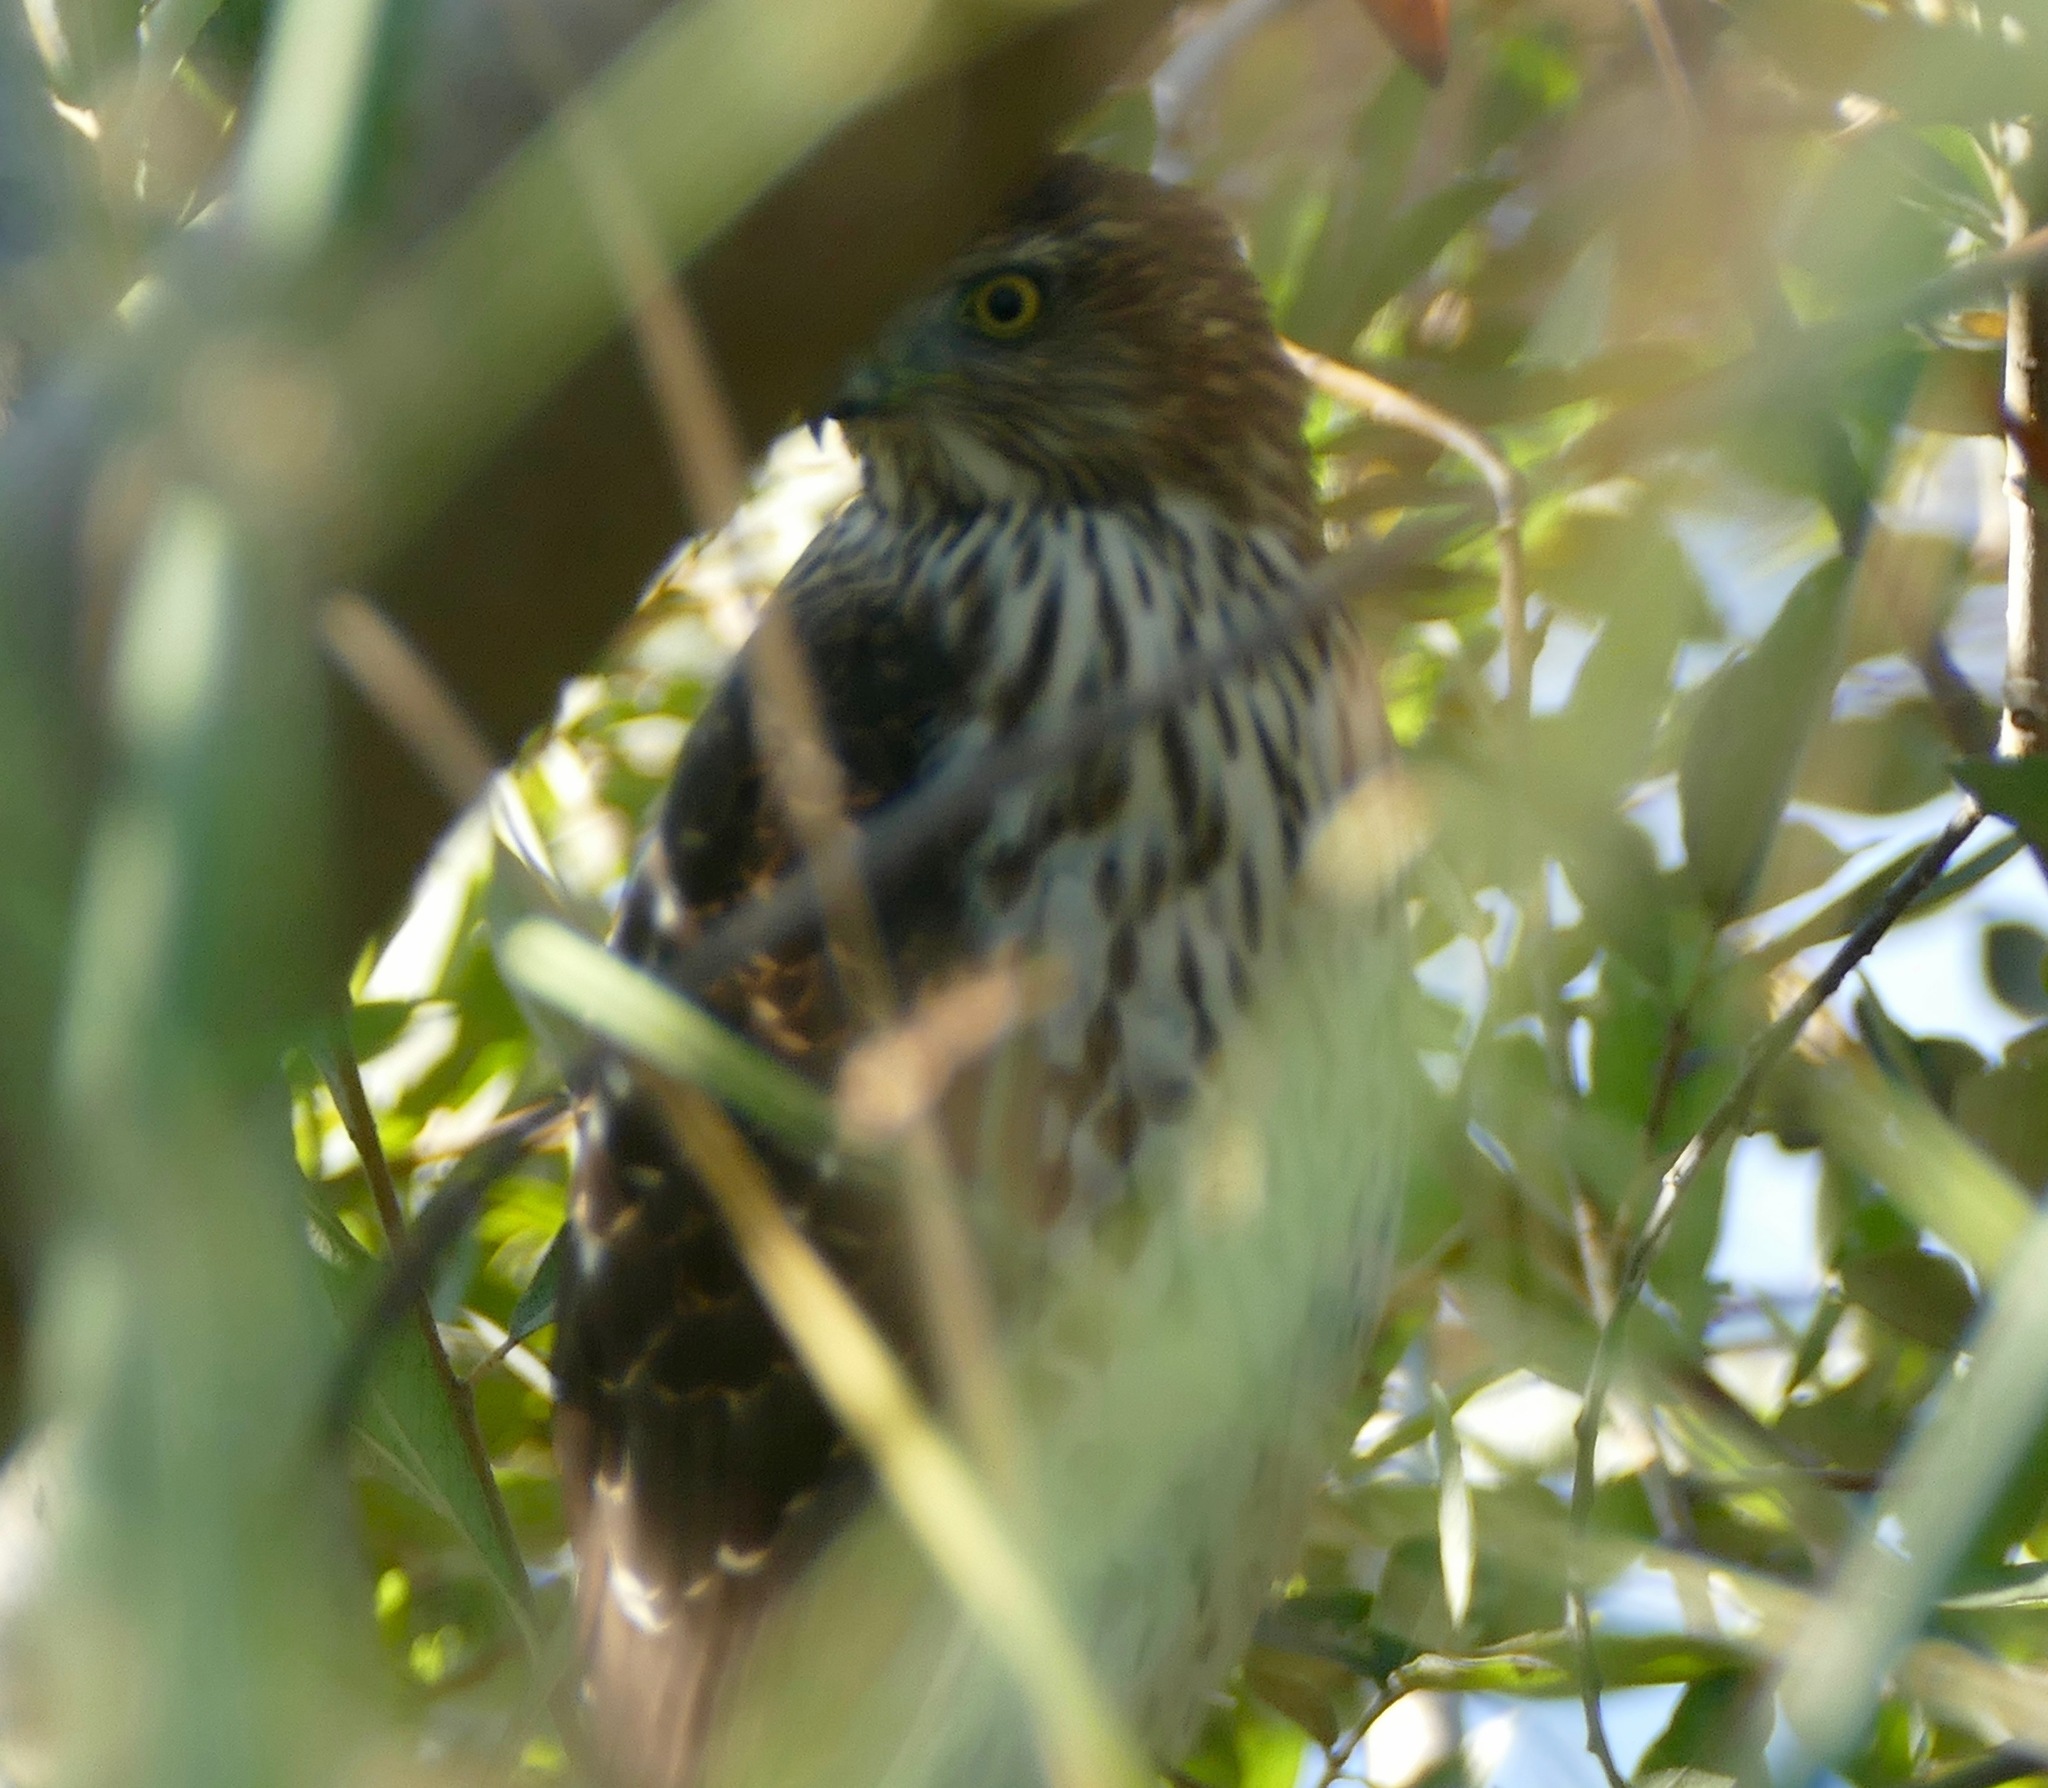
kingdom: Animalia
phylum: Chordata
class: Aves
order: Accipitriformes
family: Accipitridae
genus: Accipiter
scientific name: Accipiter cooperii
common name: Cooper's hawk
